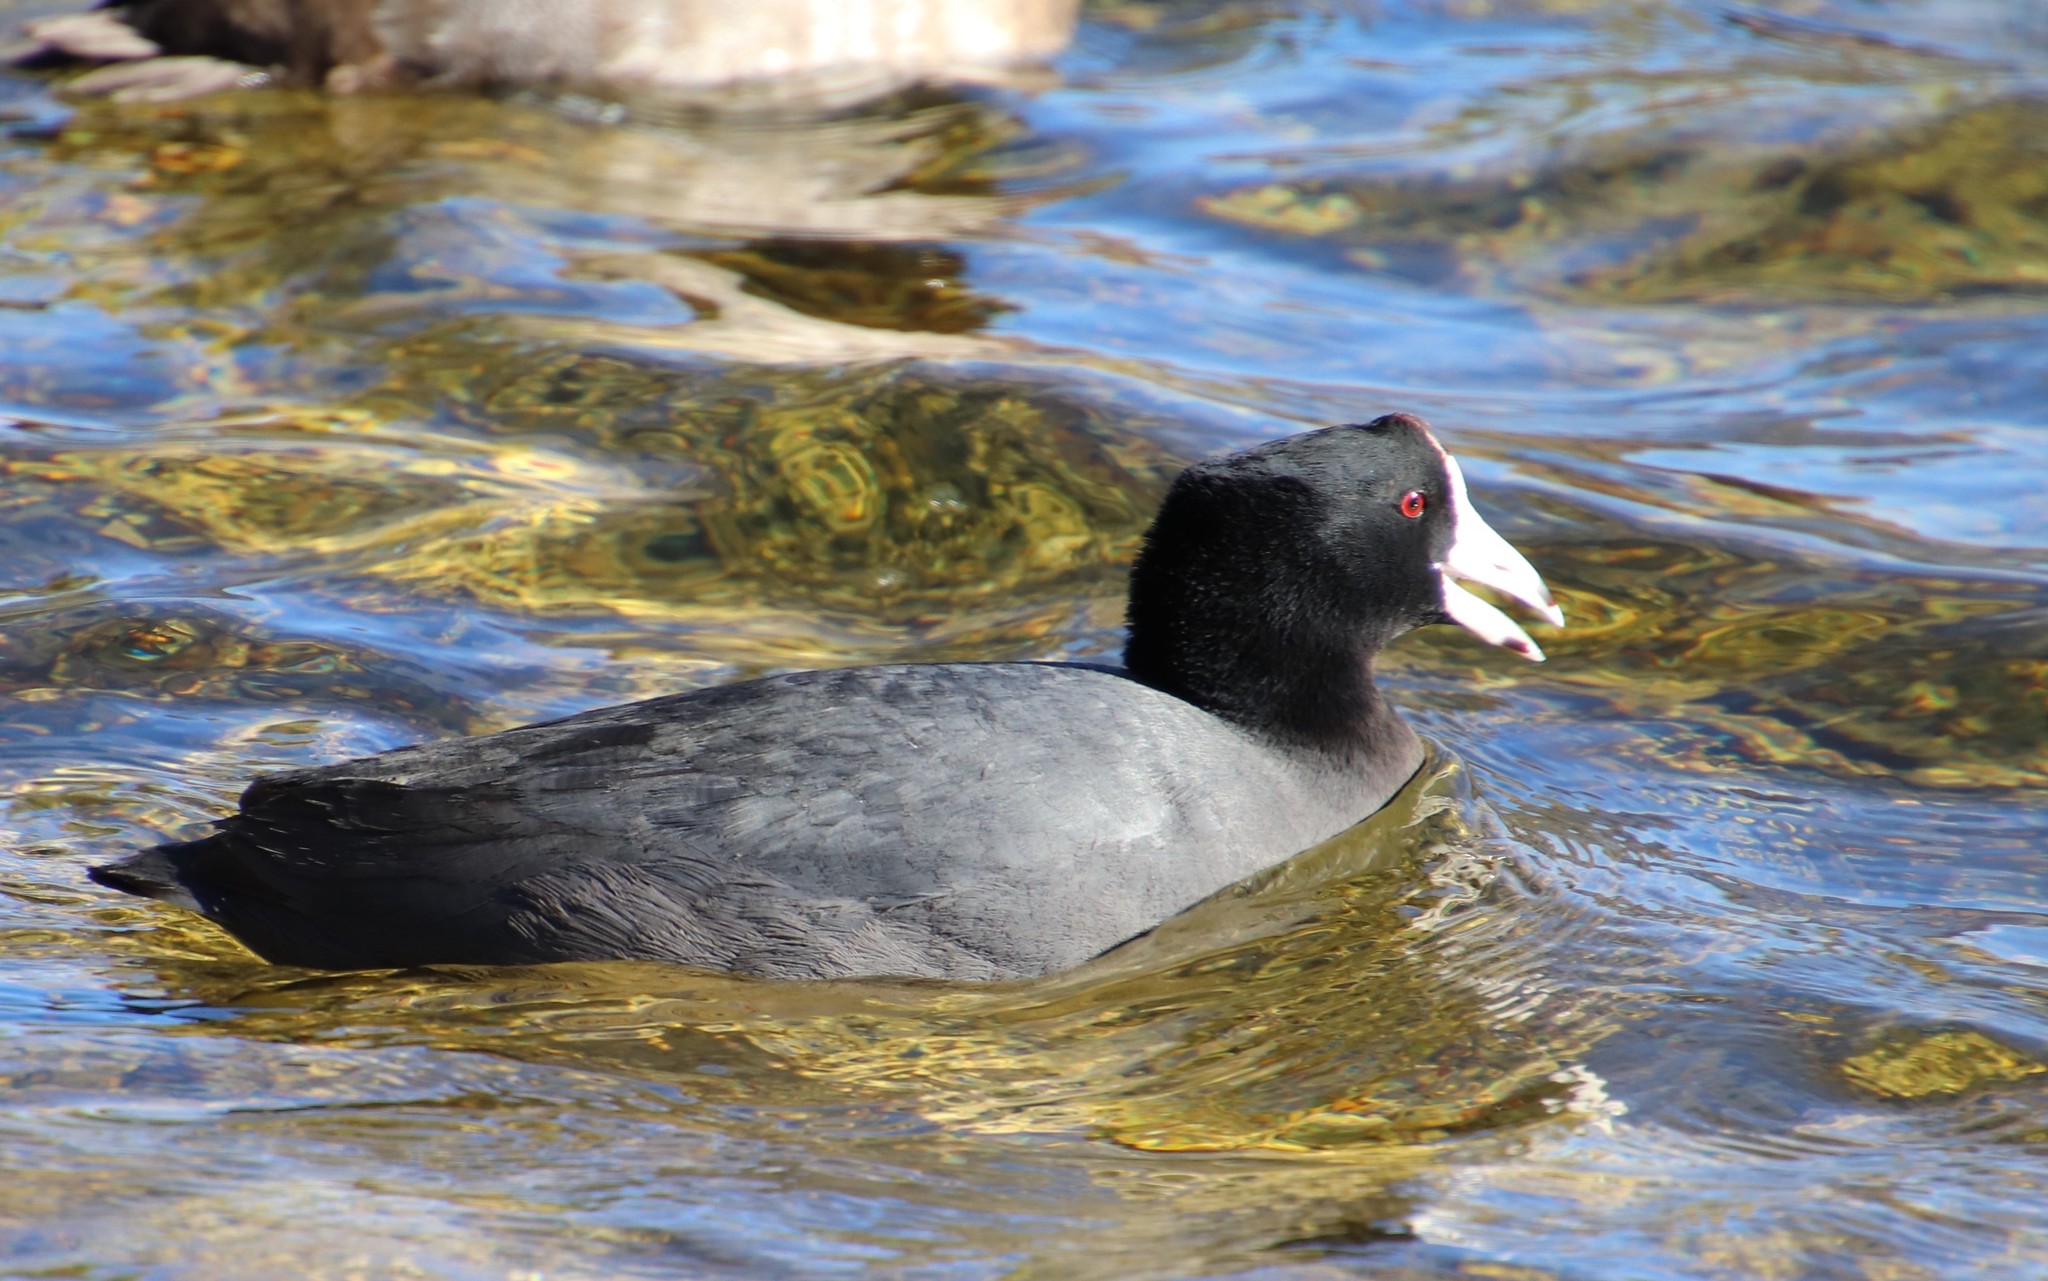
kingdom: Animalia
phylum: Chordata
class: Aves
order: Gruiformes
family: Rallidae
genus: Fulica
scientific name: Fulica americana
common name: American coot
